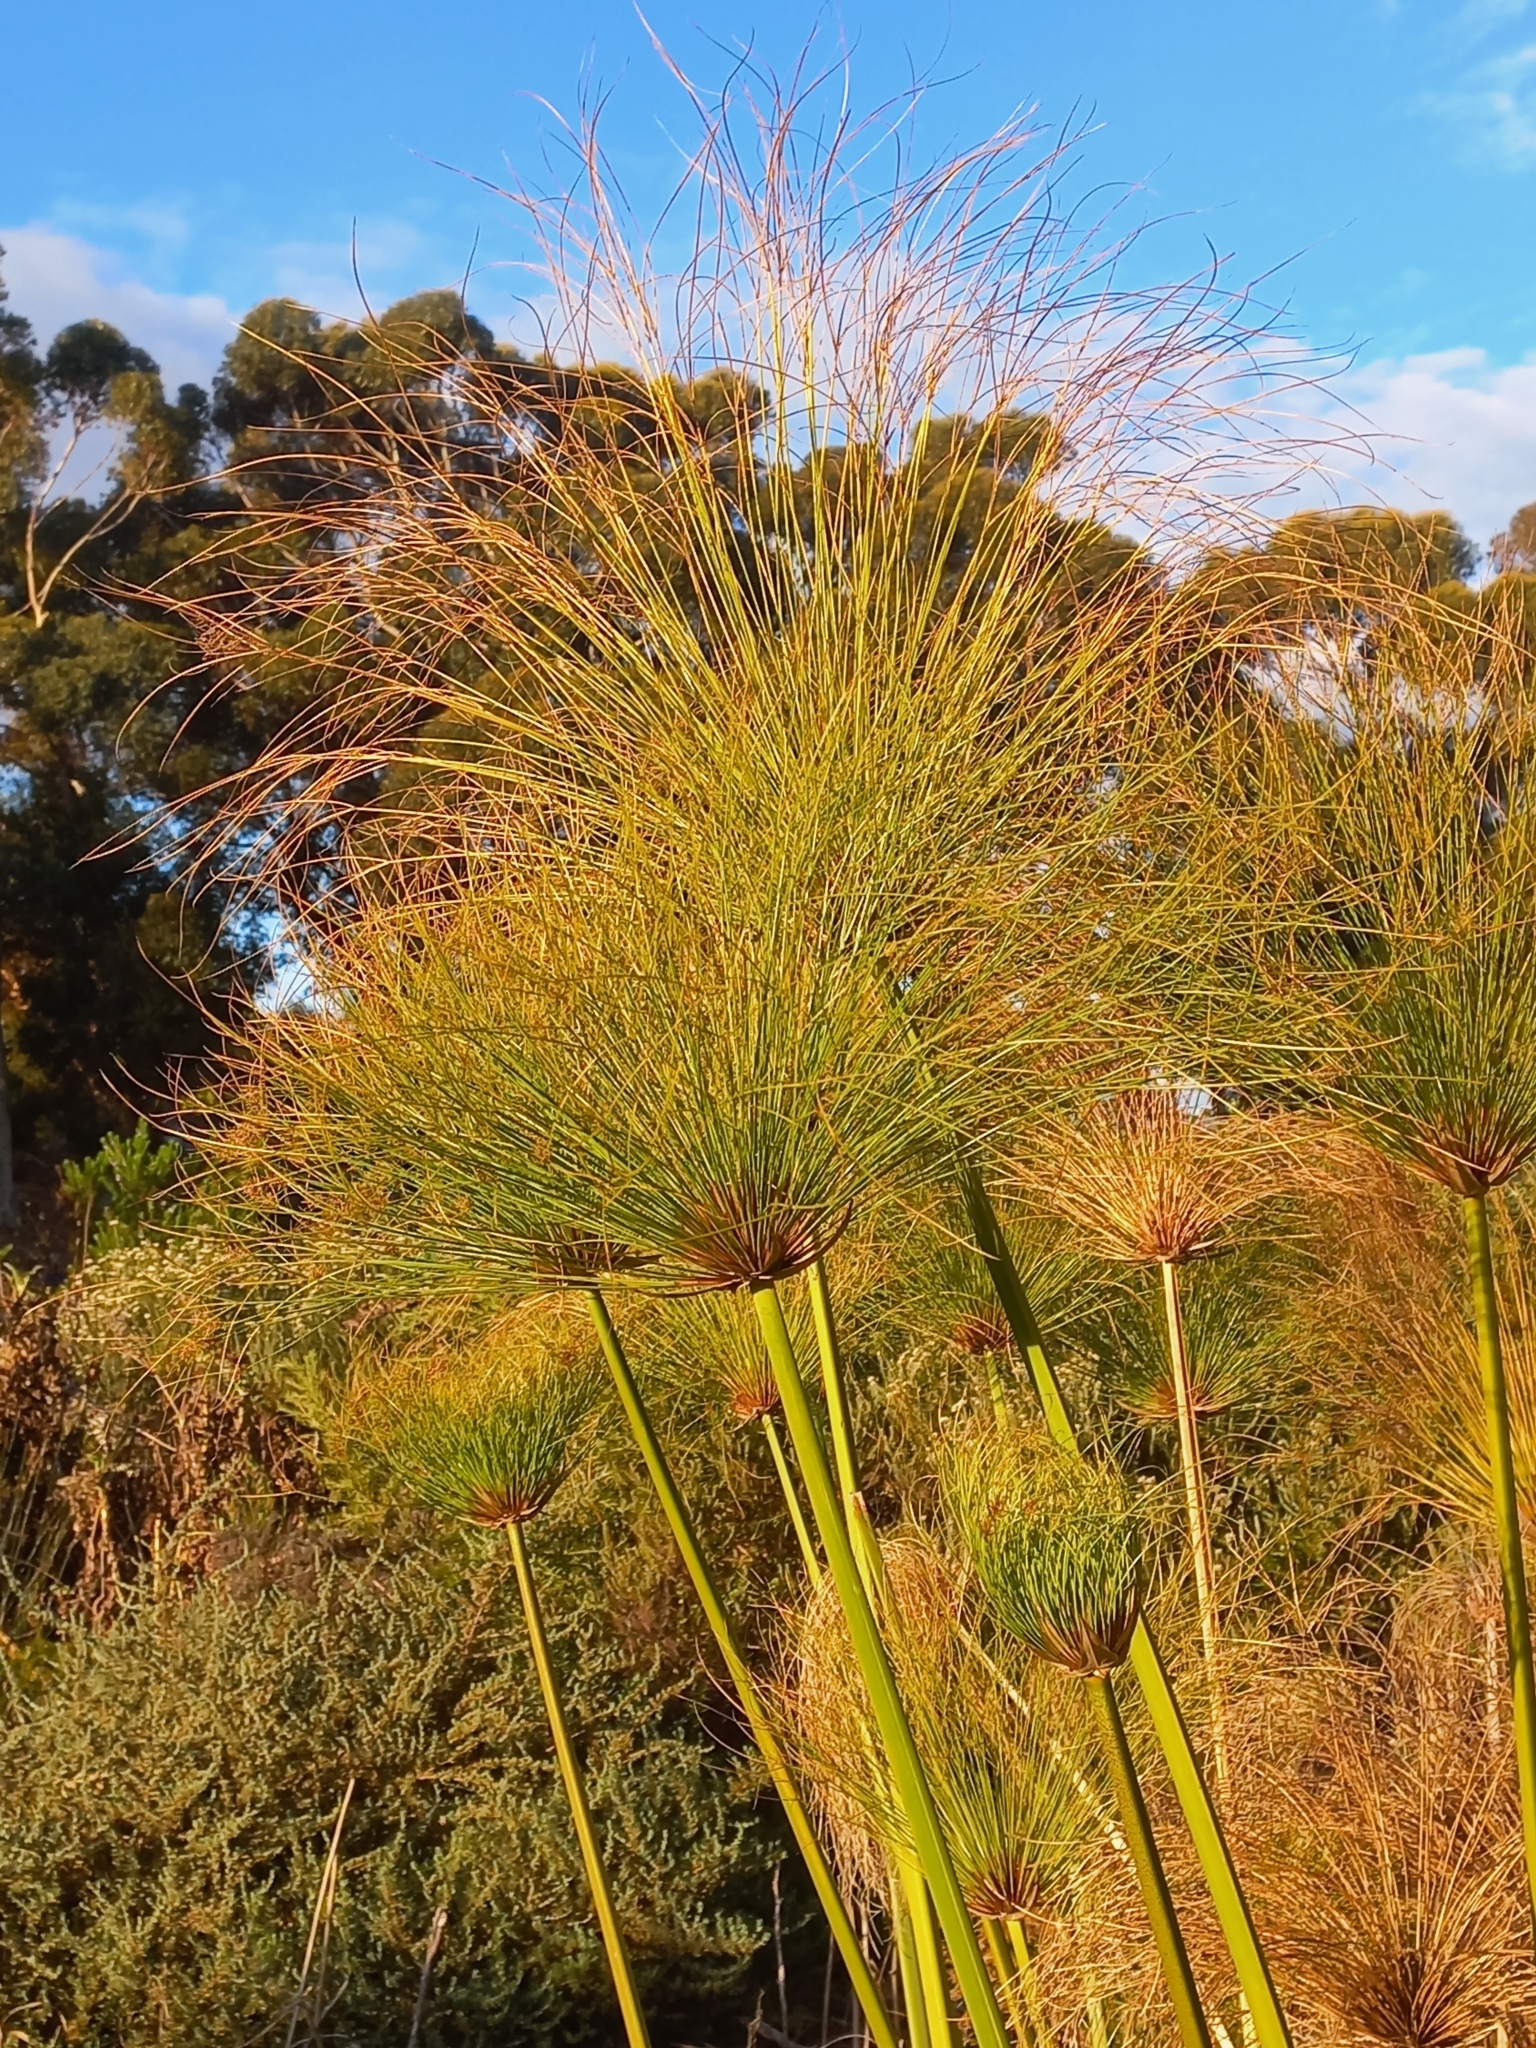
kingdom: Plantae
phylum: Tracheophyta
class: Liliopsida
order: Poales
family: Cyperaceae
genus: Cyperus
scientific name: Cyperus papyrus
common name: Papyrus
